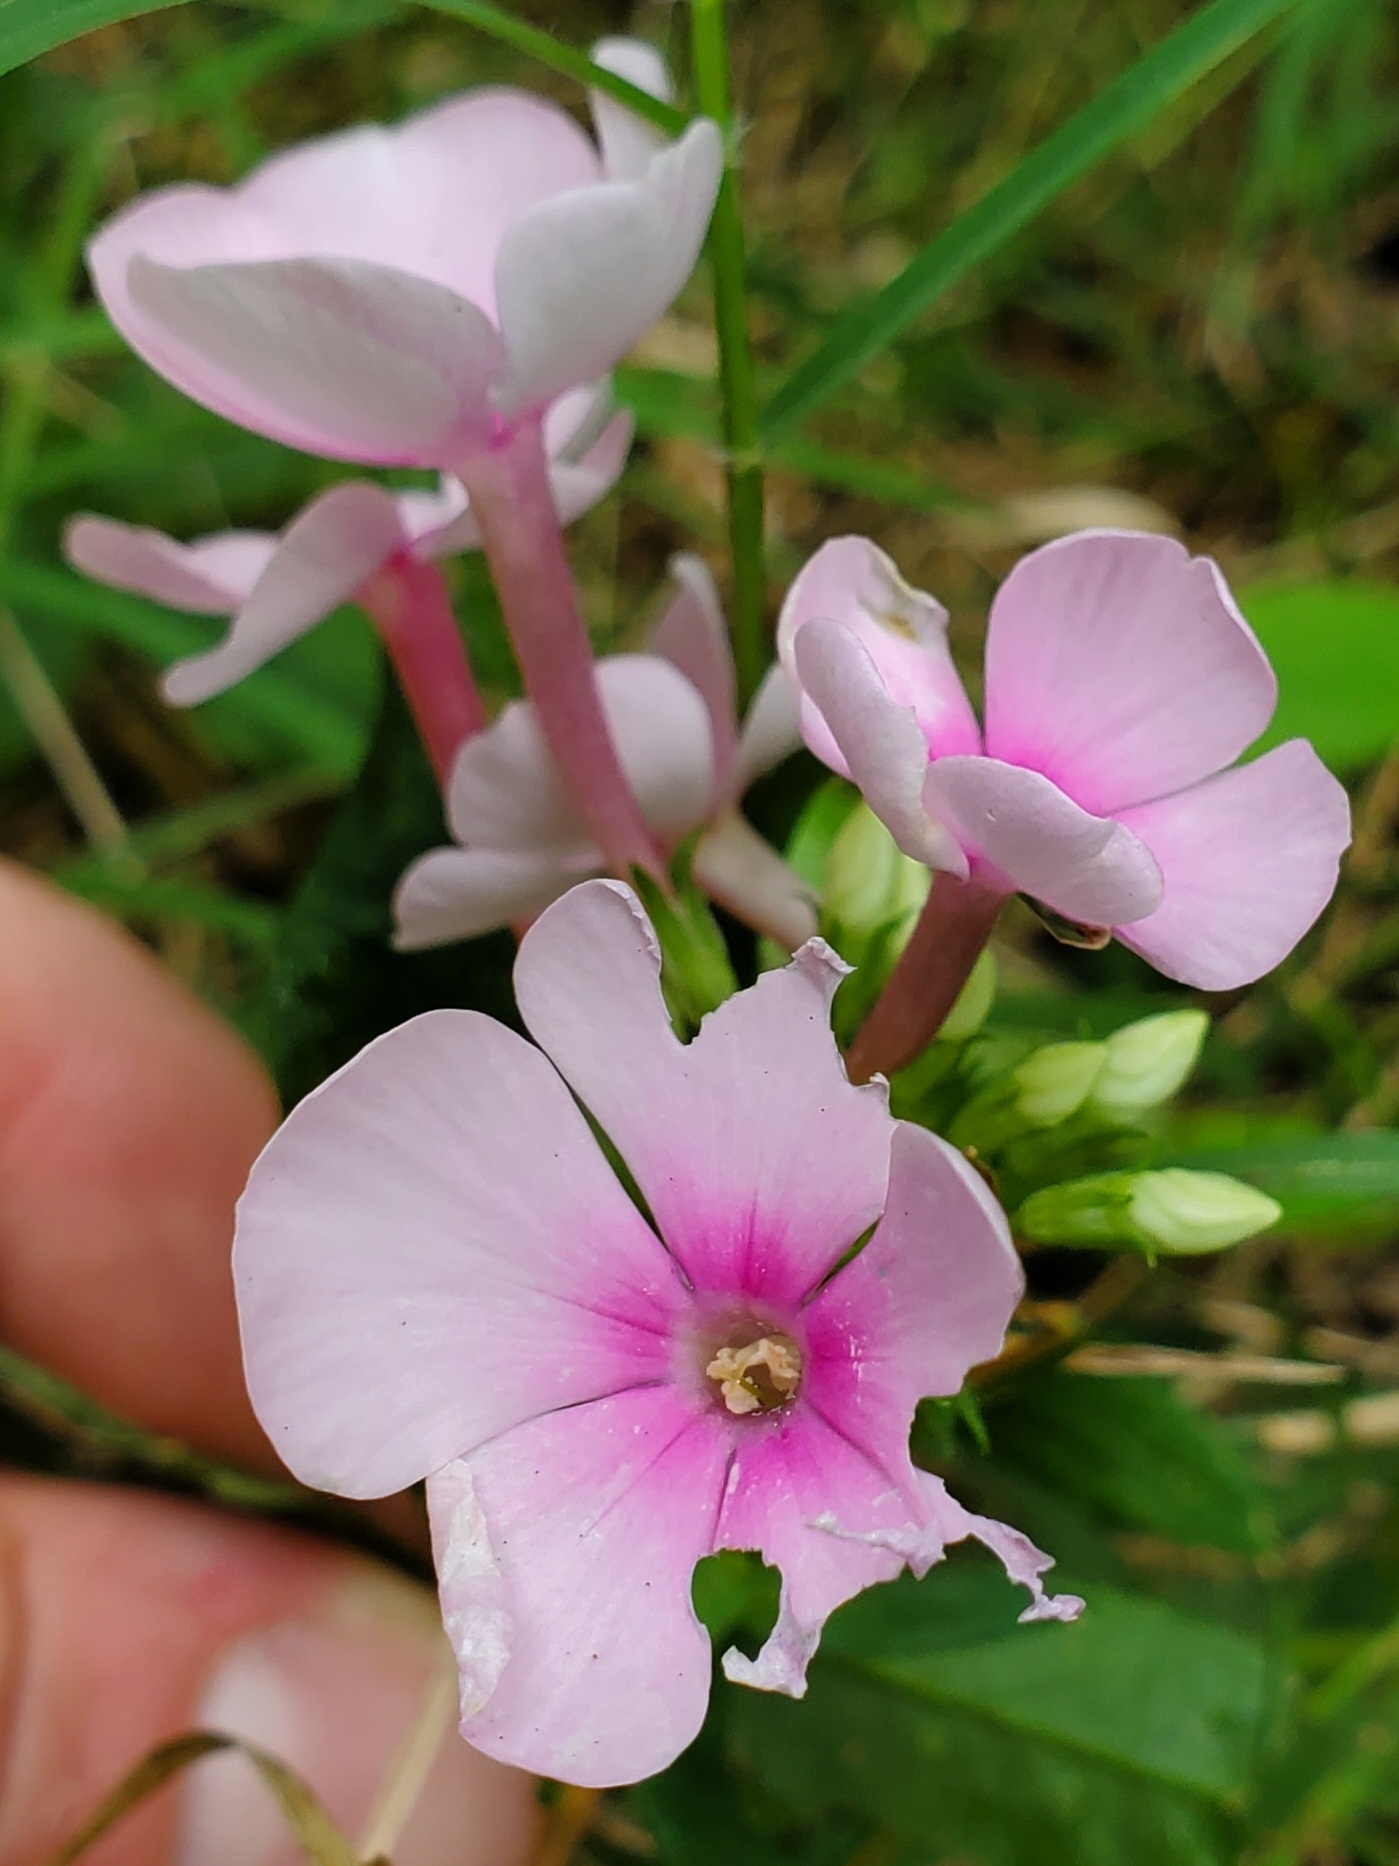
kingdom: Plantae
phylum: Tracheophyta
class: Magnoliopsida
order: Ericales
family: Polemoniaceae
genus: Phlox
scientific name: Phlox paniculata
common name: Fall phlox
